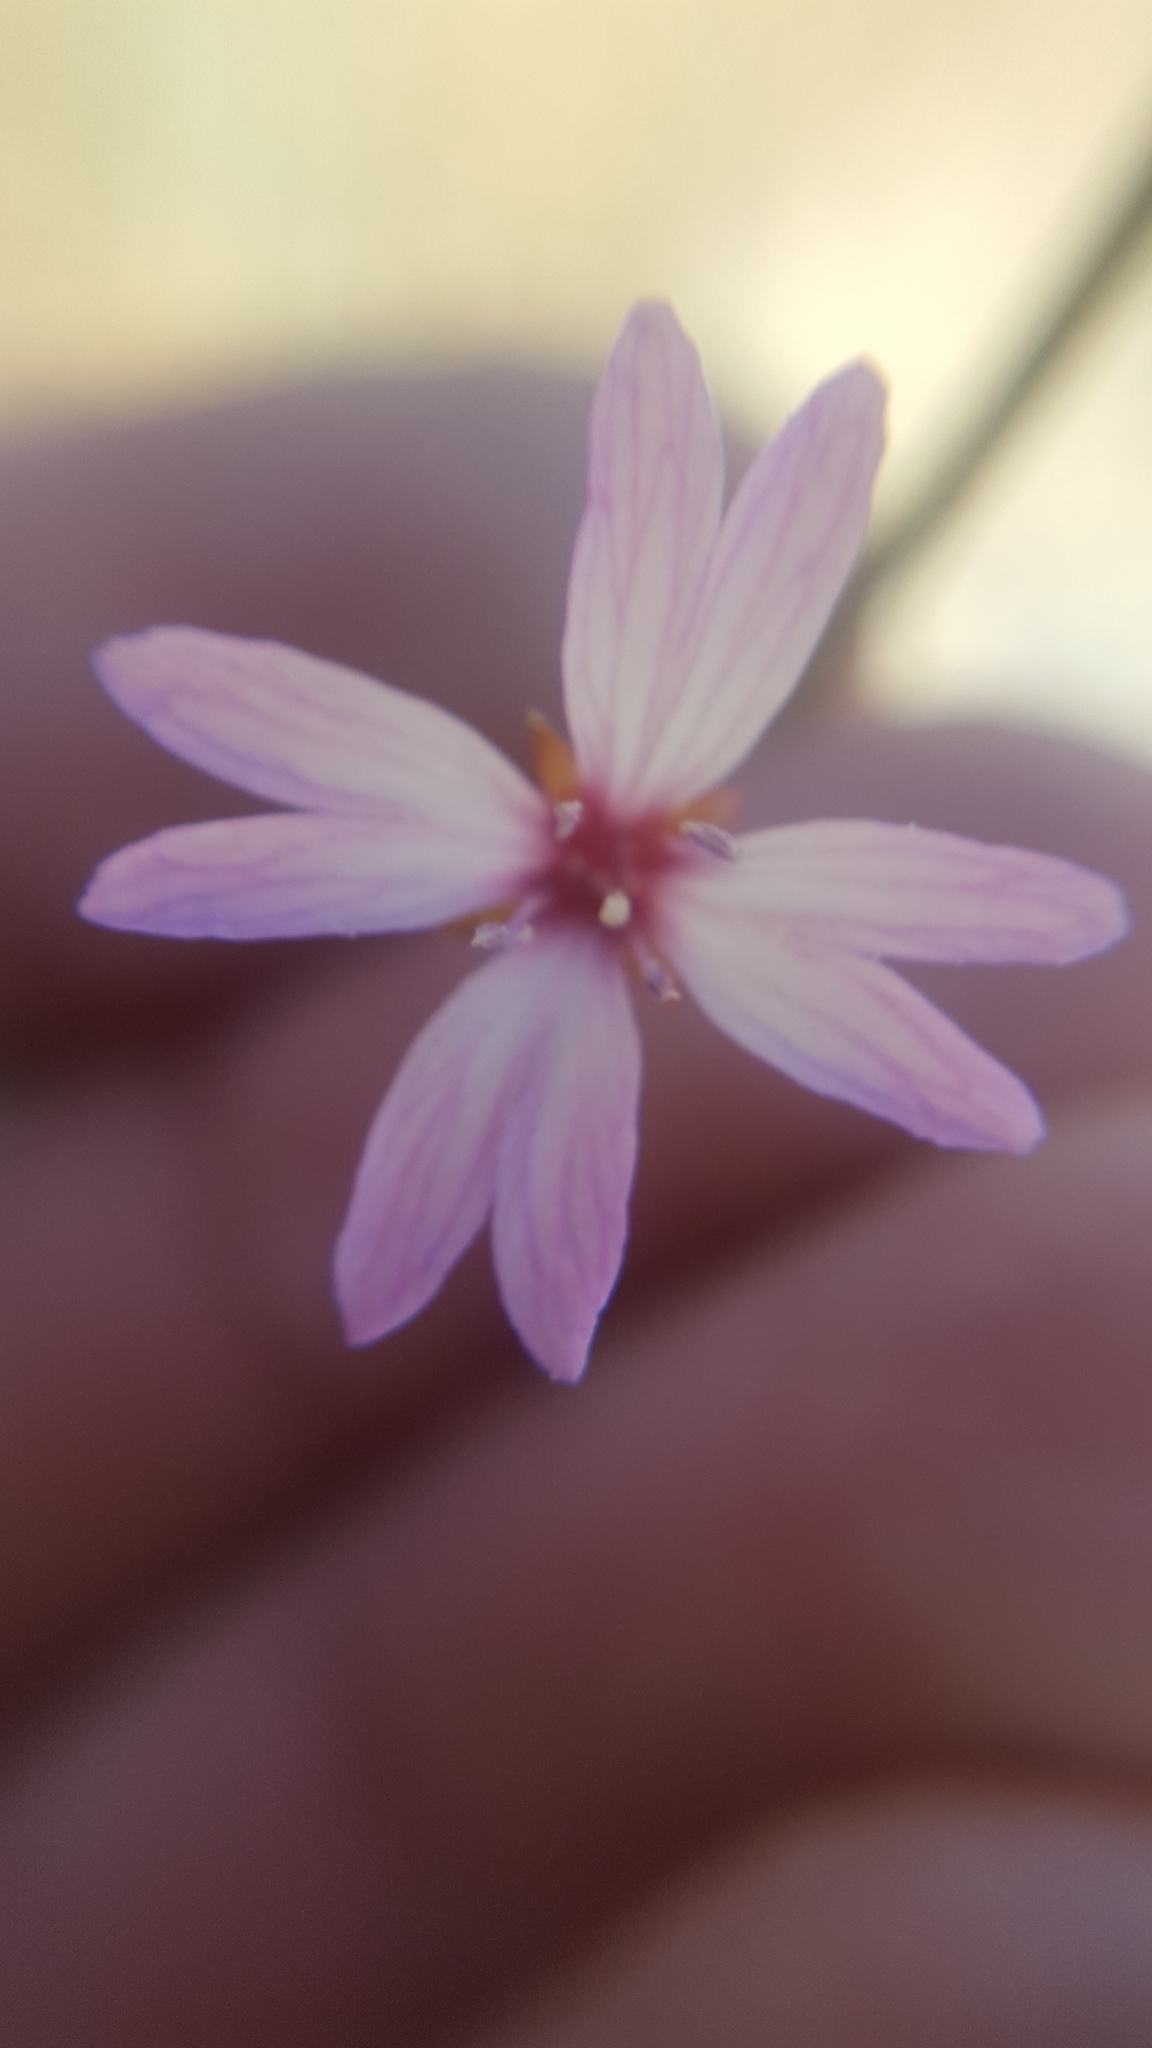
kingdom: Plantae
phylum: Tracheophyta
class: Magnoliopsida
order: Myrtales
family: Onagraceae
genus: Epilobium
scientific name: Epilobium brachycarpum
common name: Annual willowherb
